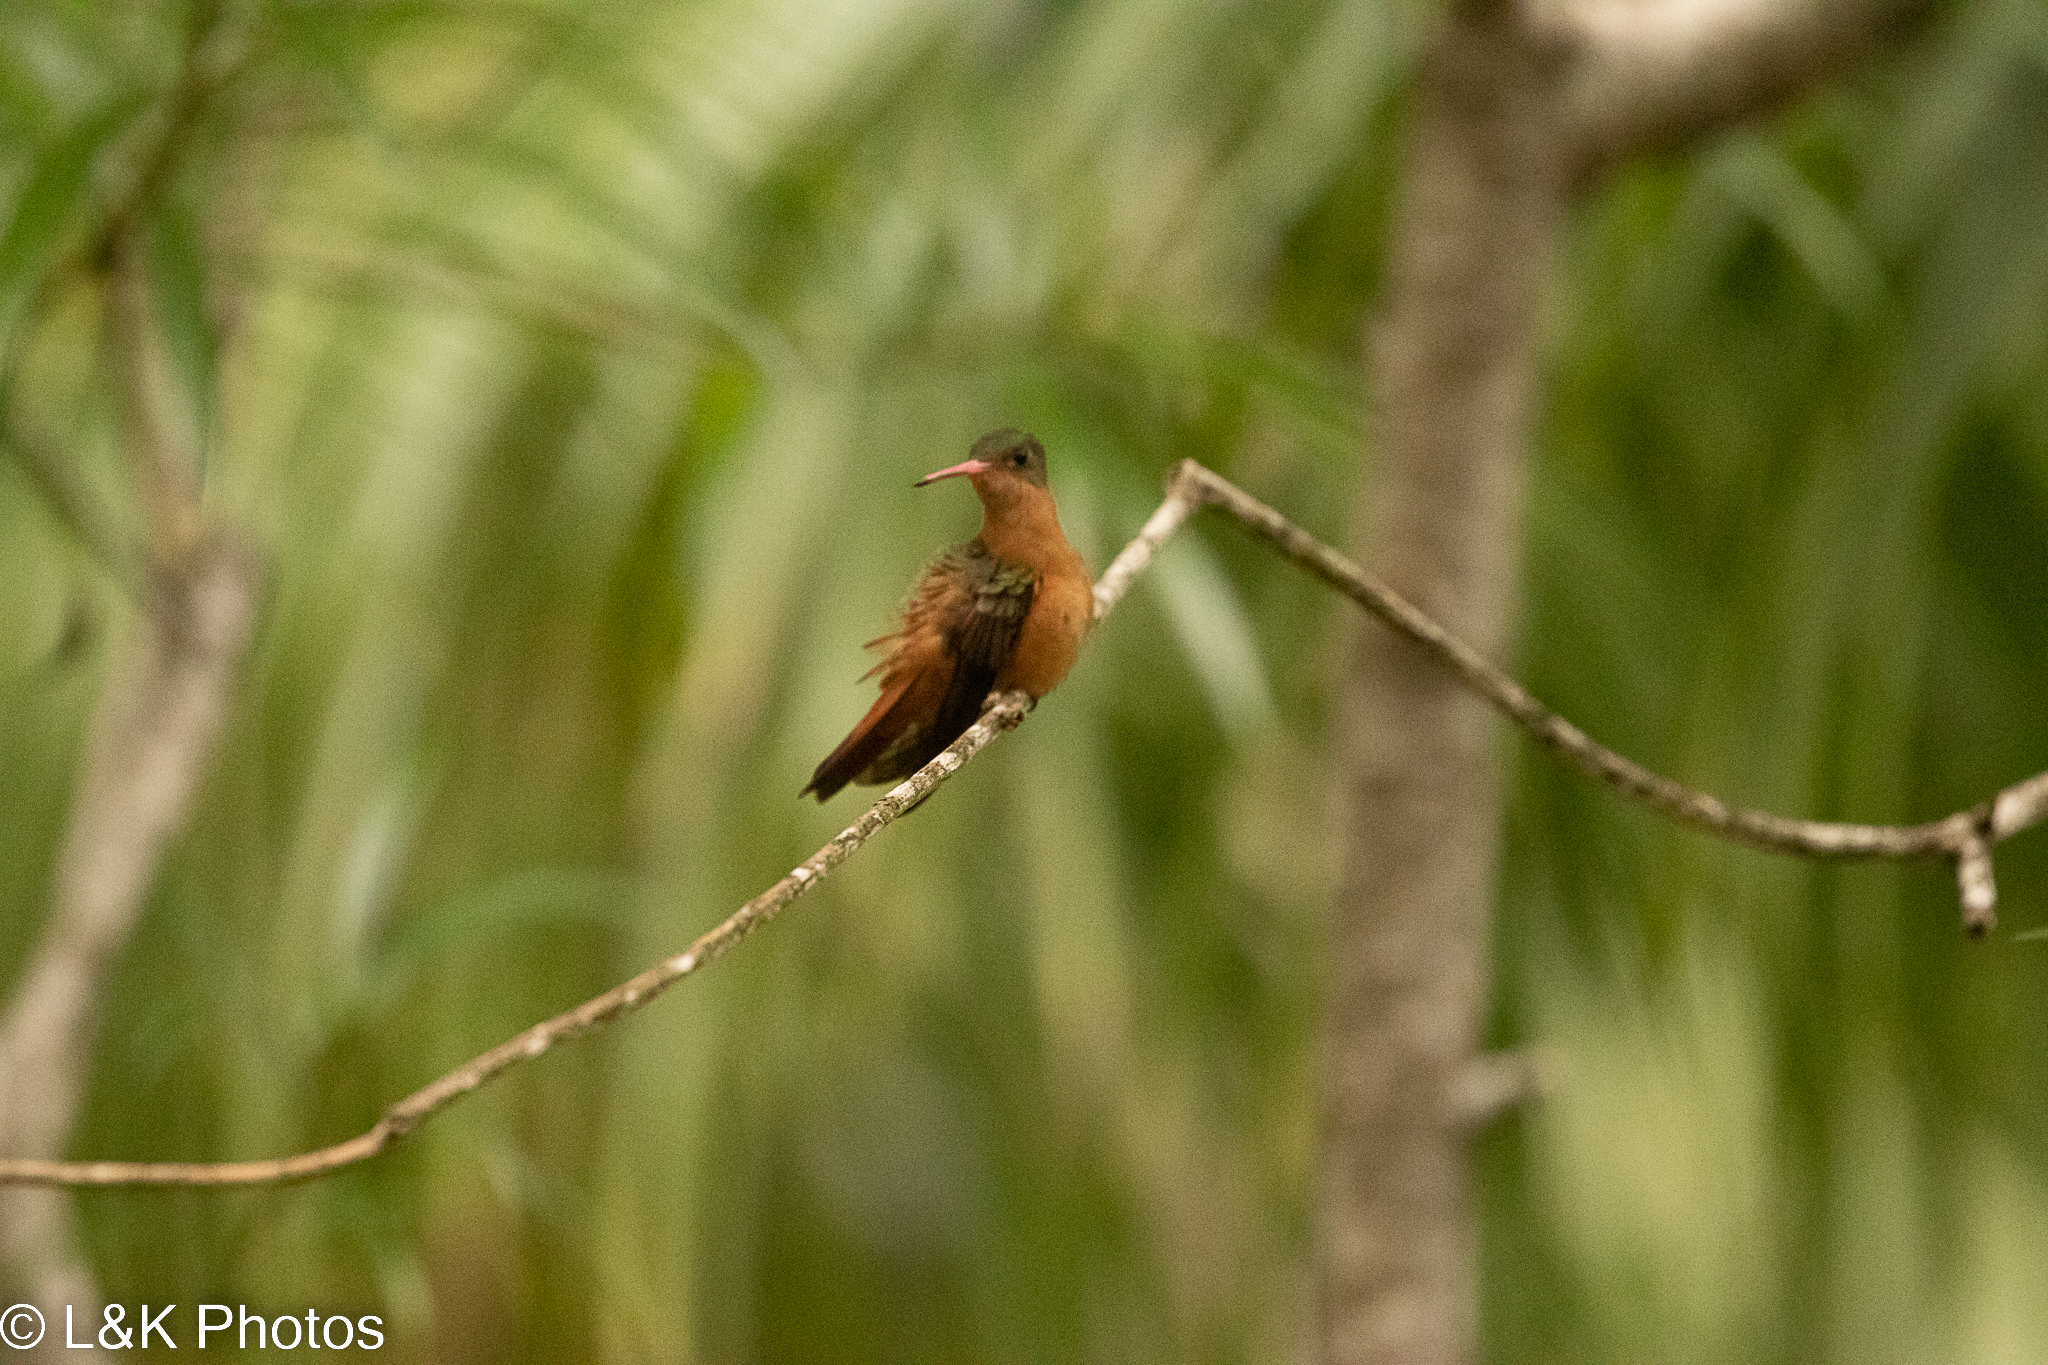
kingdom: Animalia
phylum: Chordata
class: Aves
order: Apodiformes
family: Trochilidae
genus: Amazilia
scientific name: Amazilia rutila
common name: Cinnamon hummingbird
